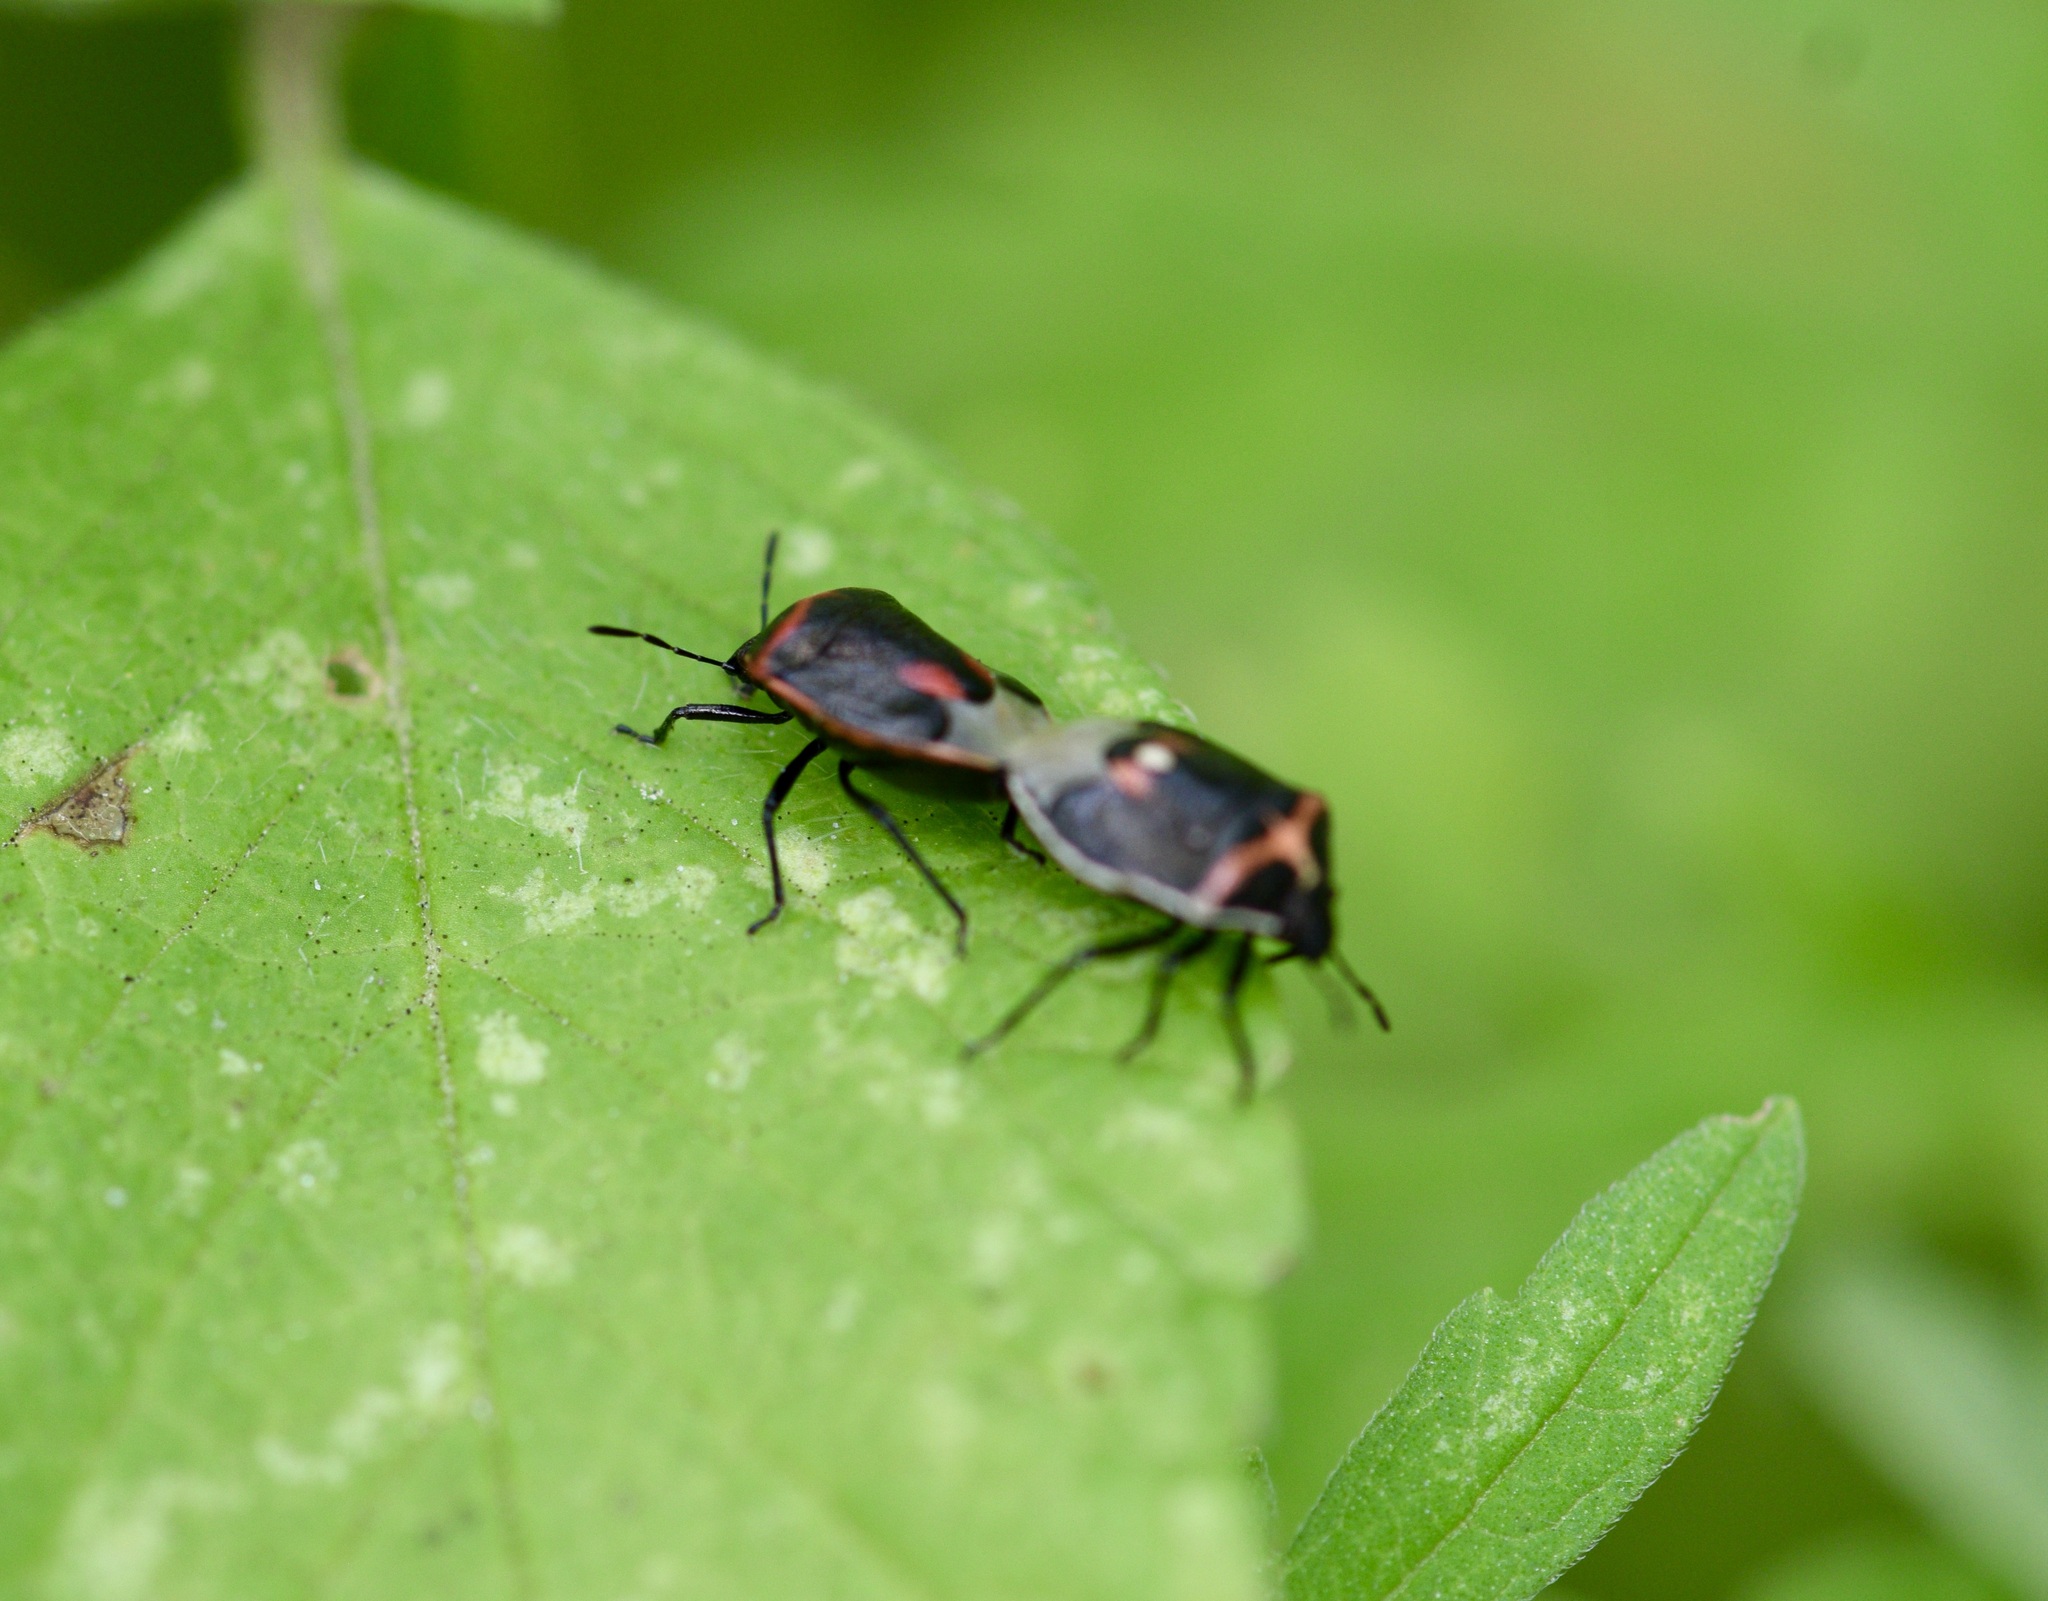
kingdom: Animalia
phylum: Arthropoda
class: Insecta
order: Hemiptera
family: Pentatomidae
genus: Cosmopepla
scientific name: Cosmopepla lintneriana
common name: Twice-stabbed stink bug
